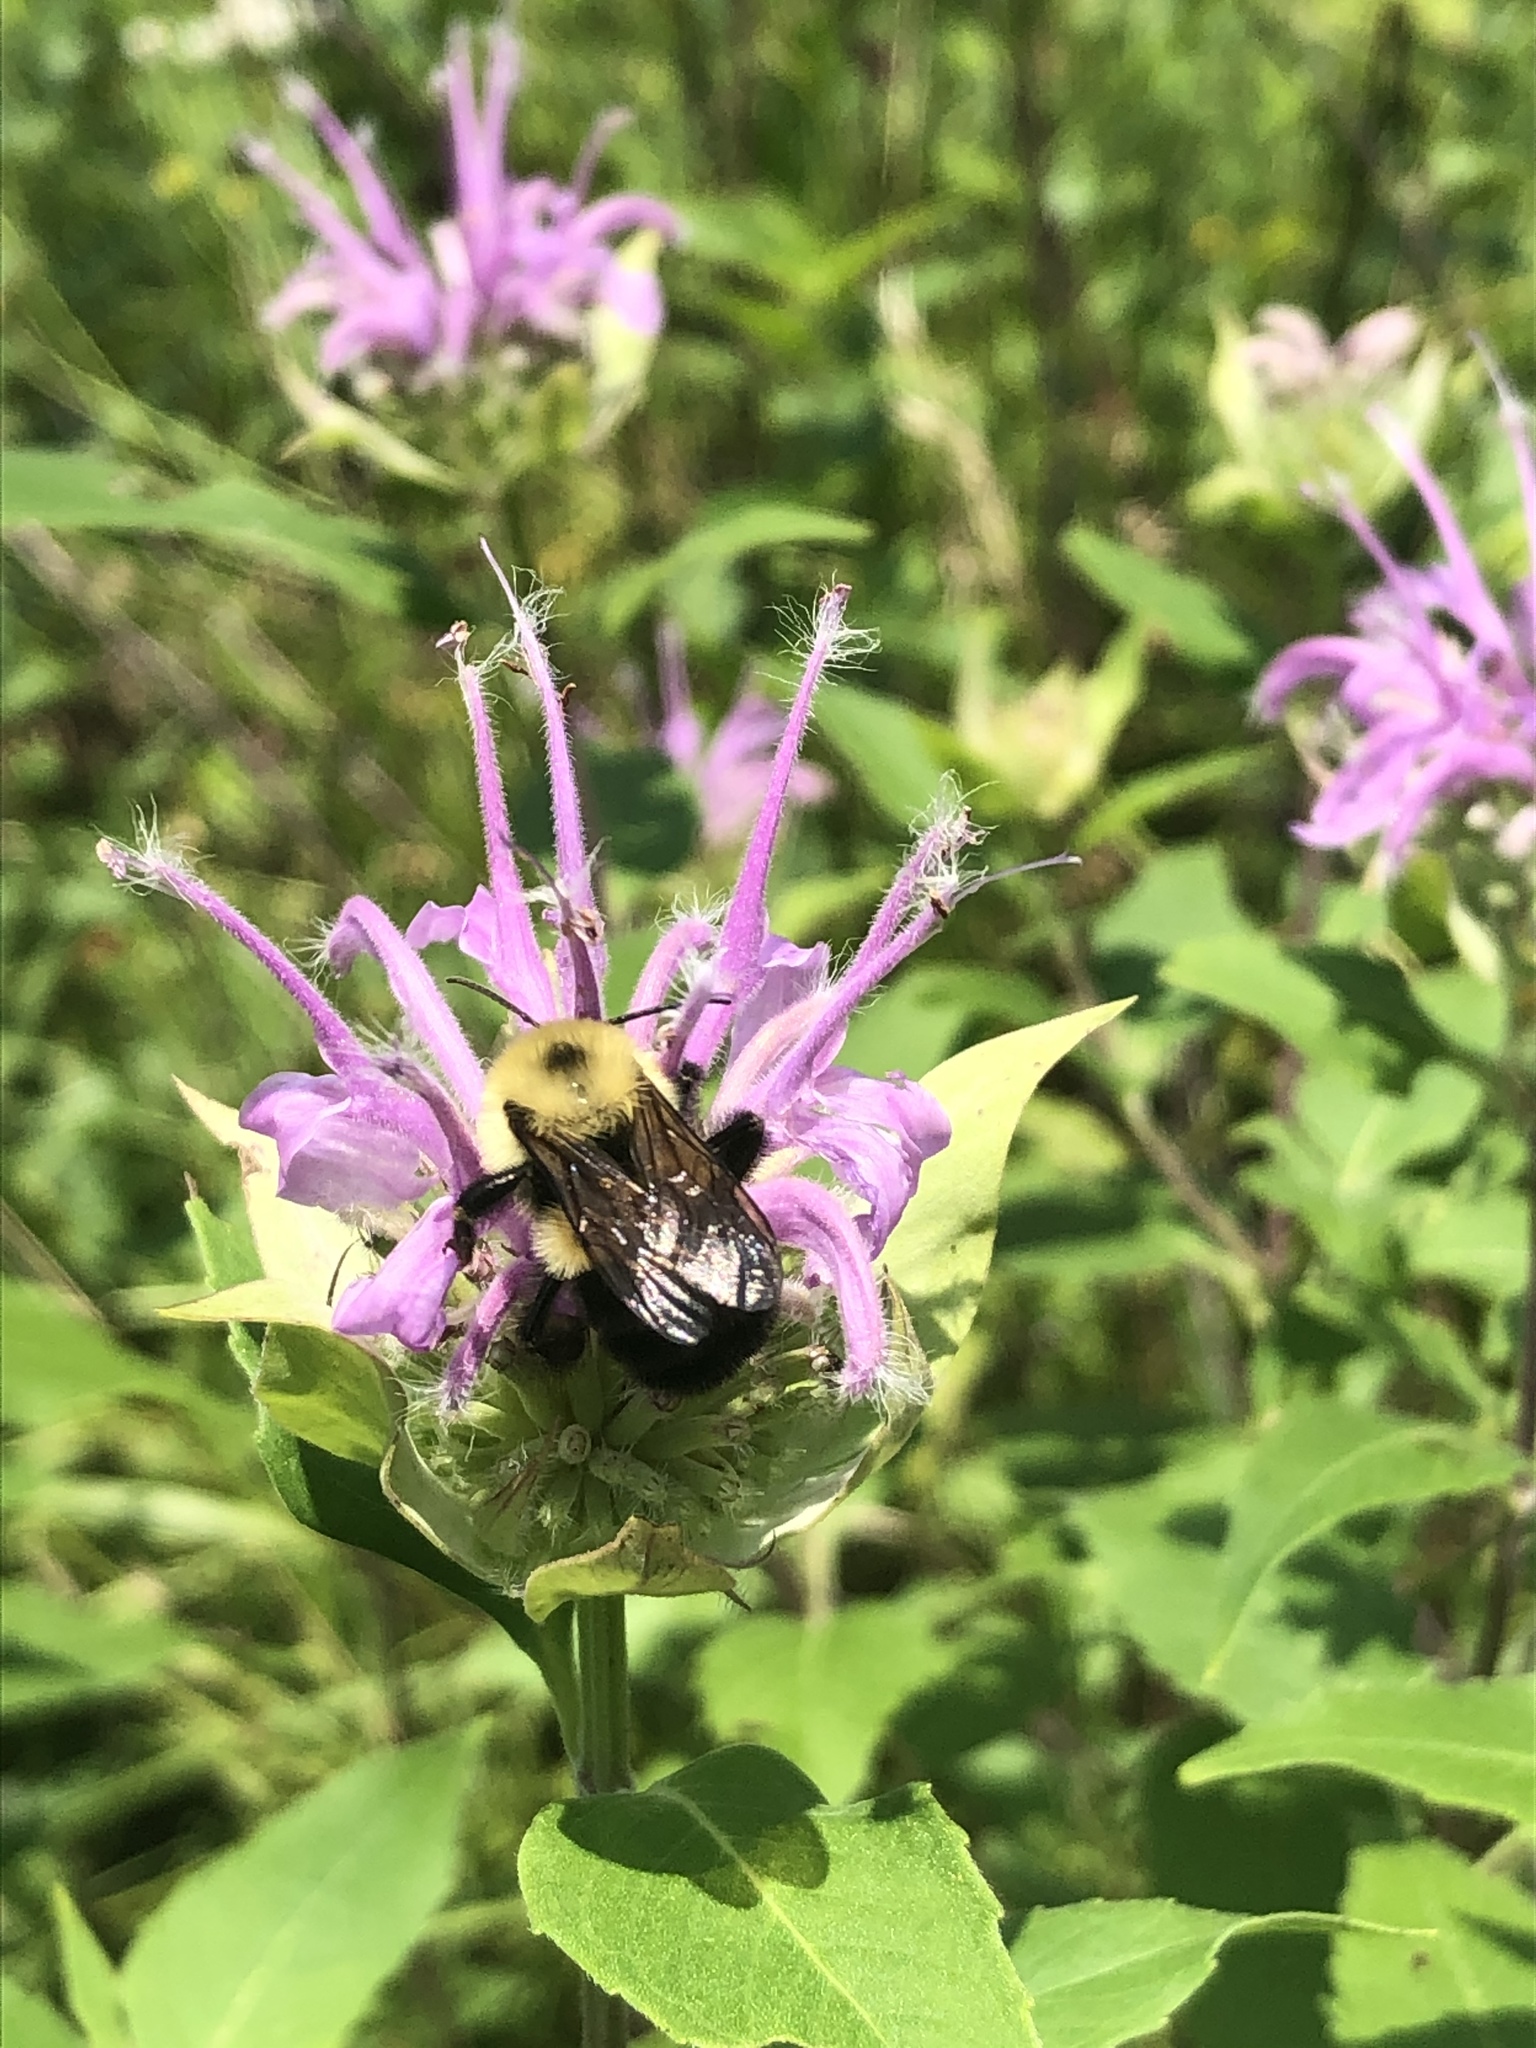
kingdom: Plantae
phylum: Tracheophyta
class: Magnoliopsida
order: Lamiales
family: Lamiaceae
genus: Monarda
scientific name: Monarda fistulosa
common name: Purple beebalm
